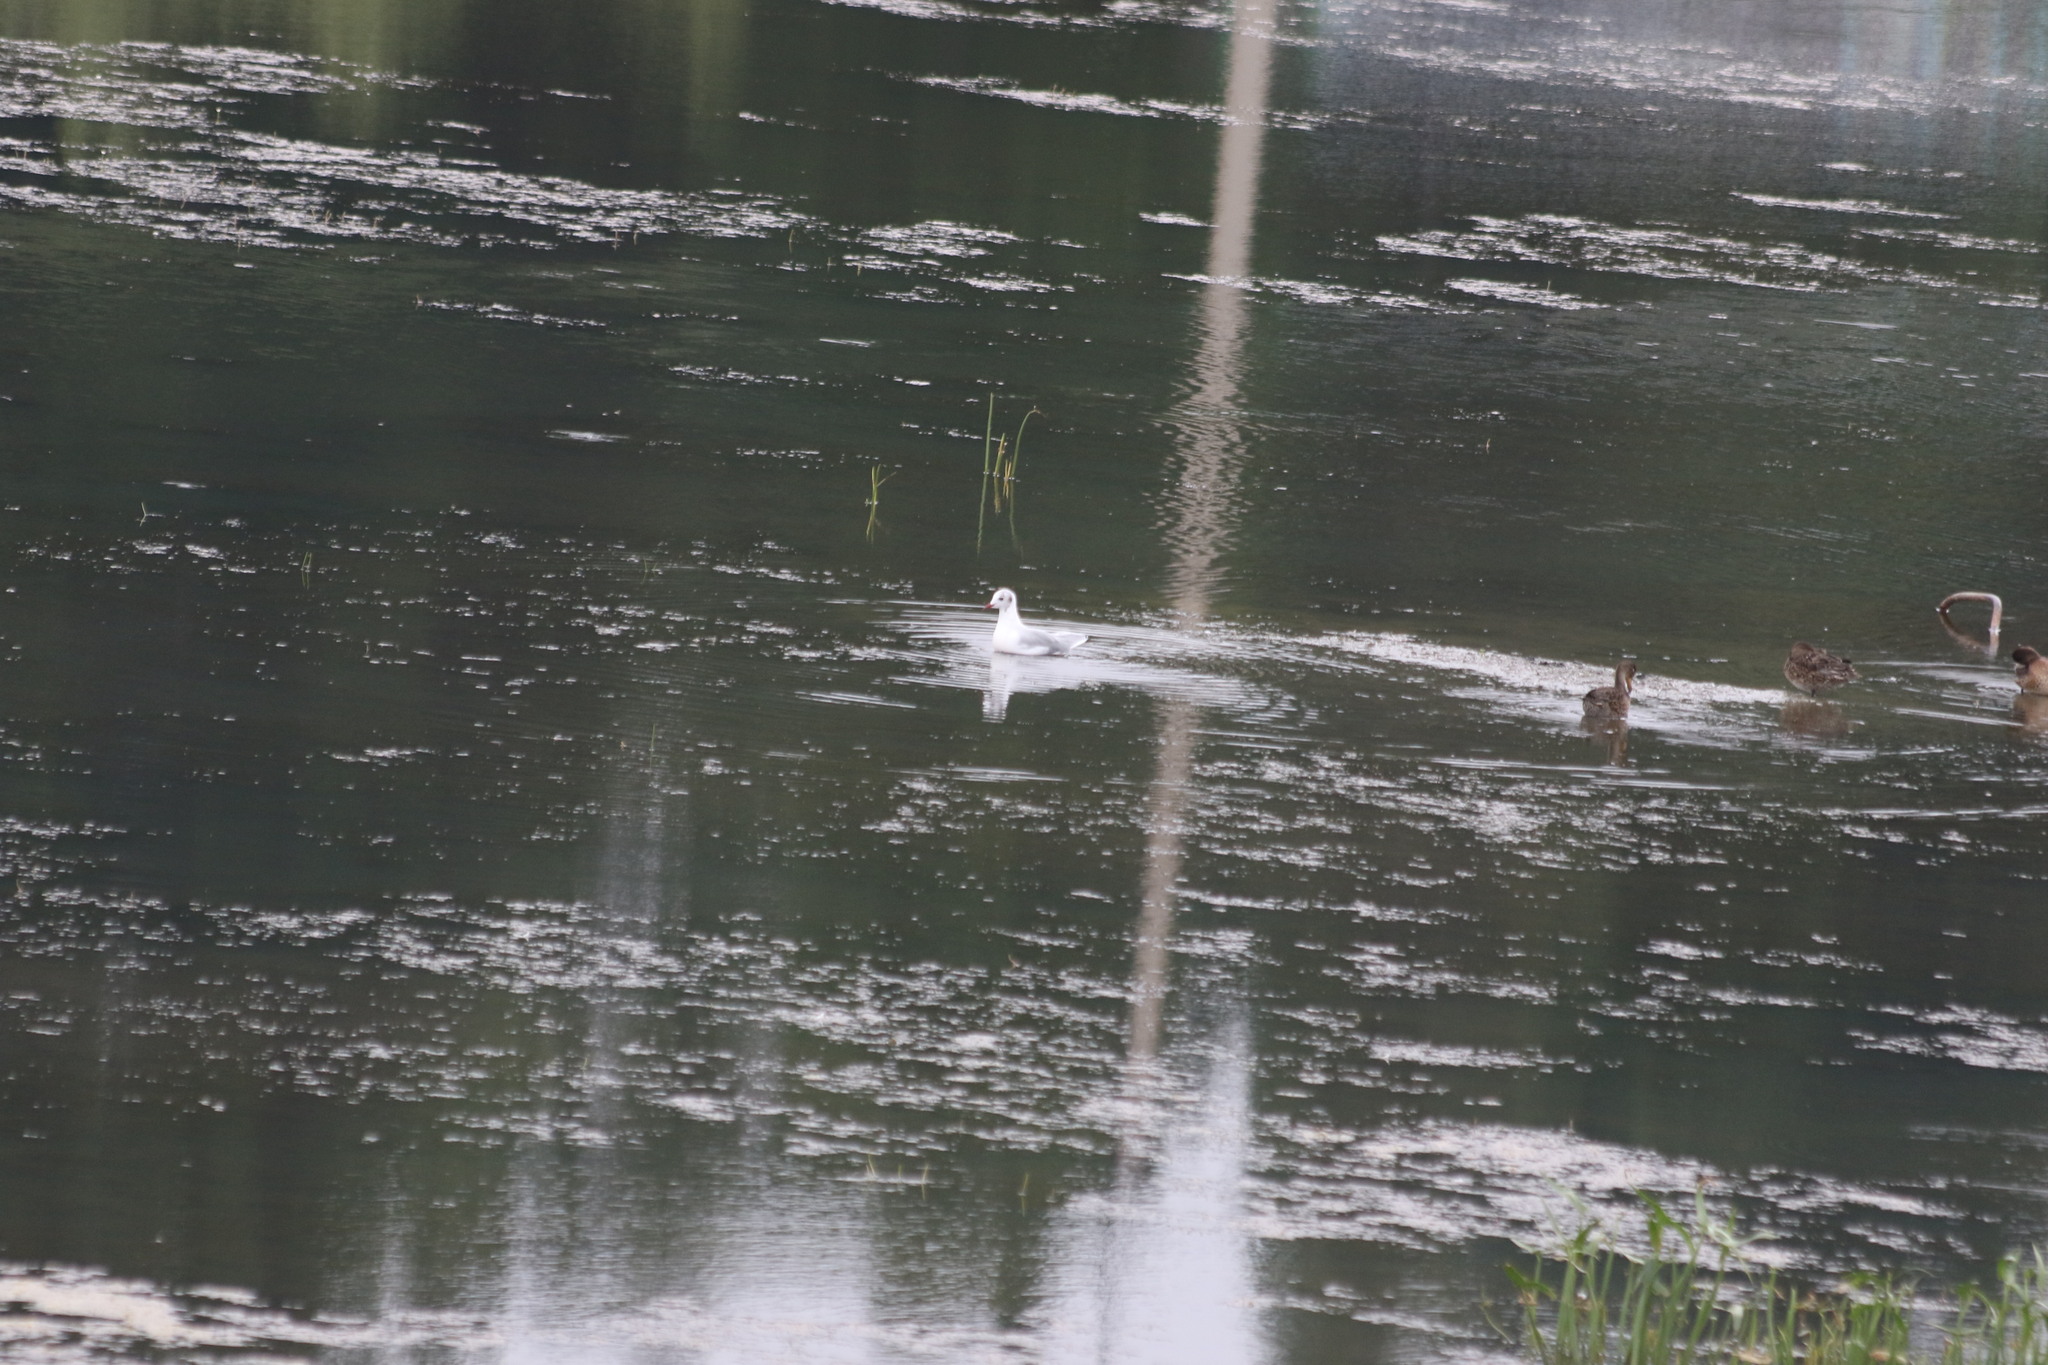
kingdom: Animalia
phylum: Chordata
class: Aves
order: Charadriiformes
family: Laridae
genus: Chroicocephalus
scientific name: Chroicocephalus ridibundus
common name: Black-headed gull
